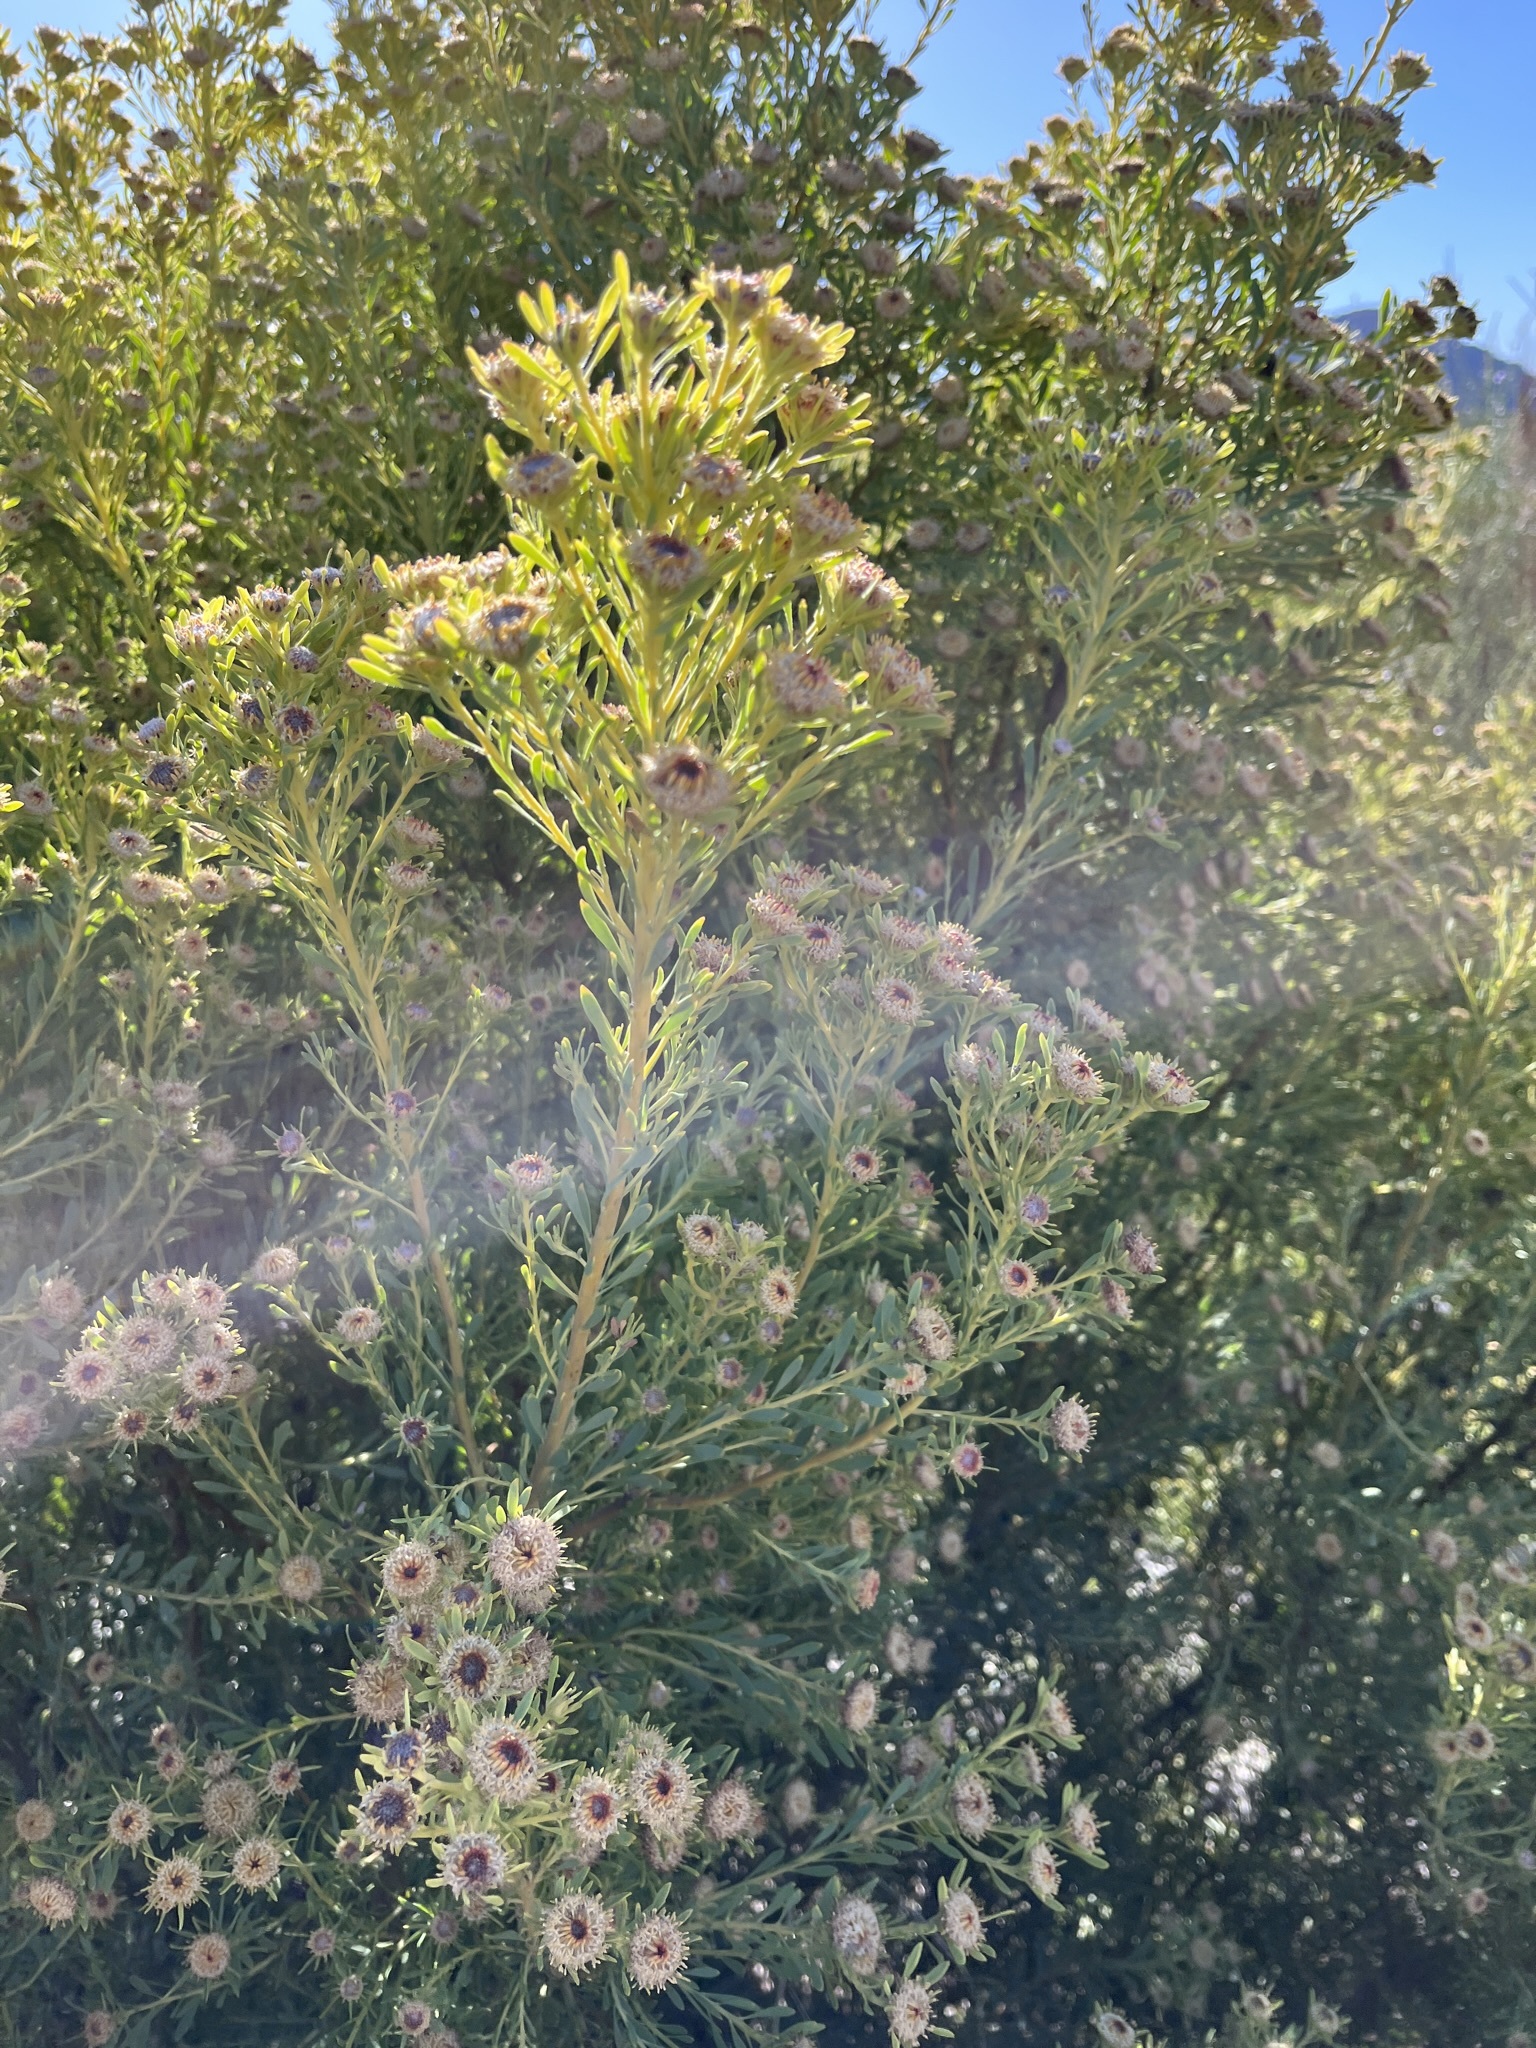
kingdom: Plantae
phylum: Tracheophyta
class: Magnoliopsida
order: Proteales
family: Proteaceae
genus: Leucadendron
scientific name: Leucadendron pubescens
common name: Grey conebush
